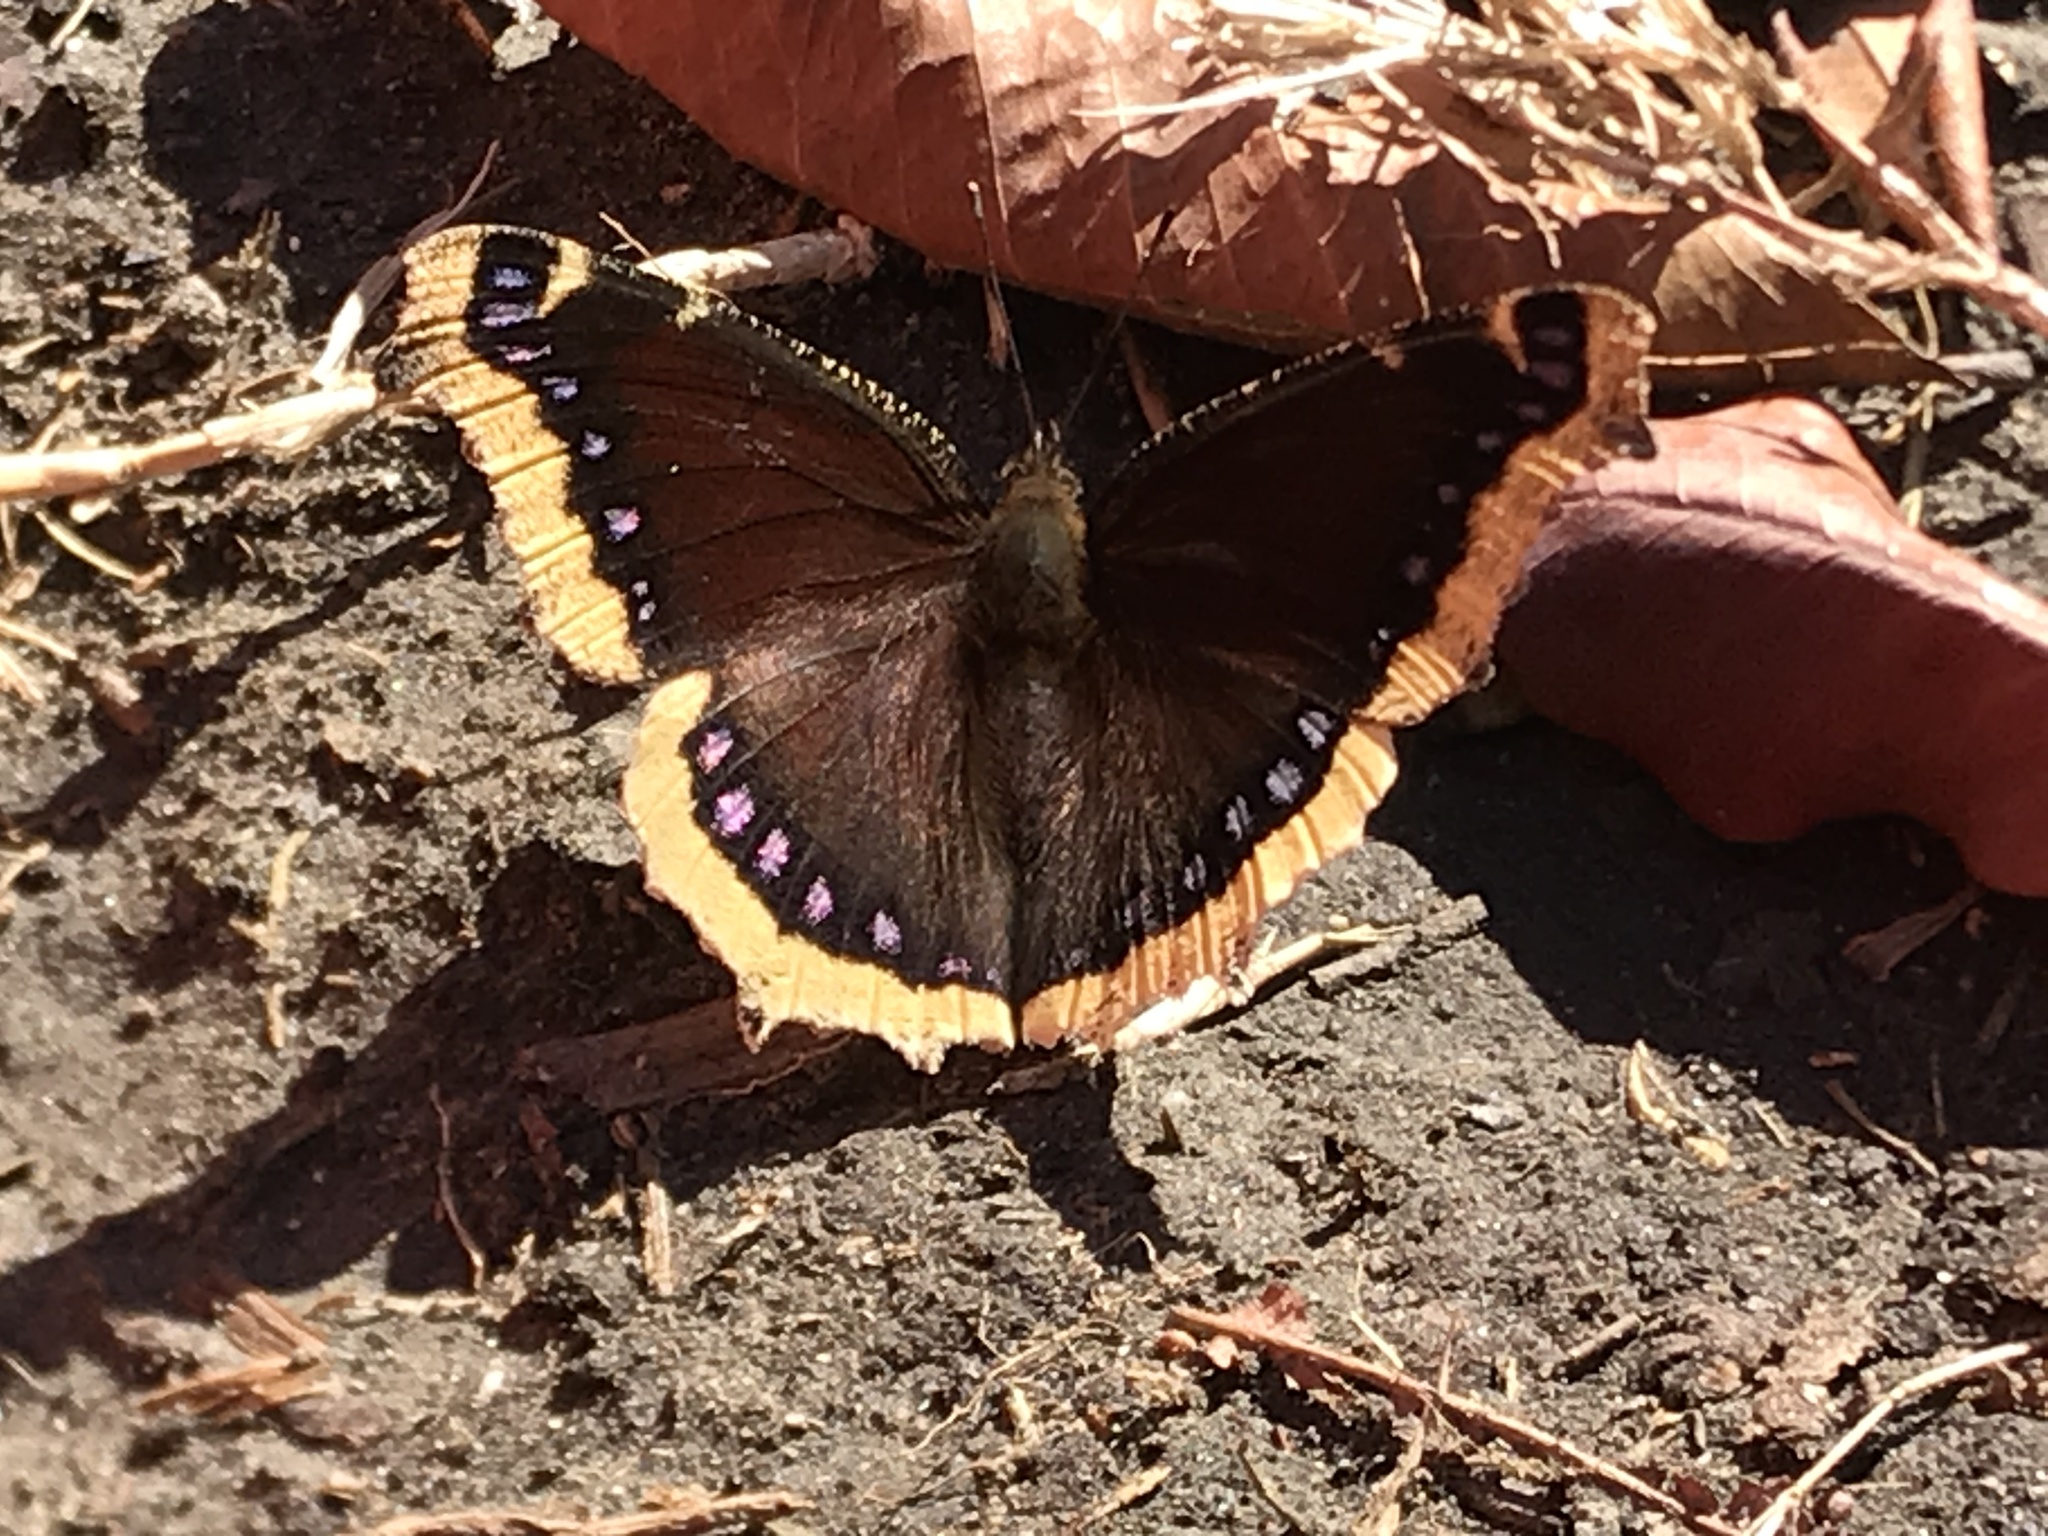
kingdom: Animalia
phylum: Arthropoda
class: Insecta
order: Lepidoptera
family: Nymphalidae
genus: Nymphalis
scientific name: Nymphalis antiopa
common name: Camberwell beauty
